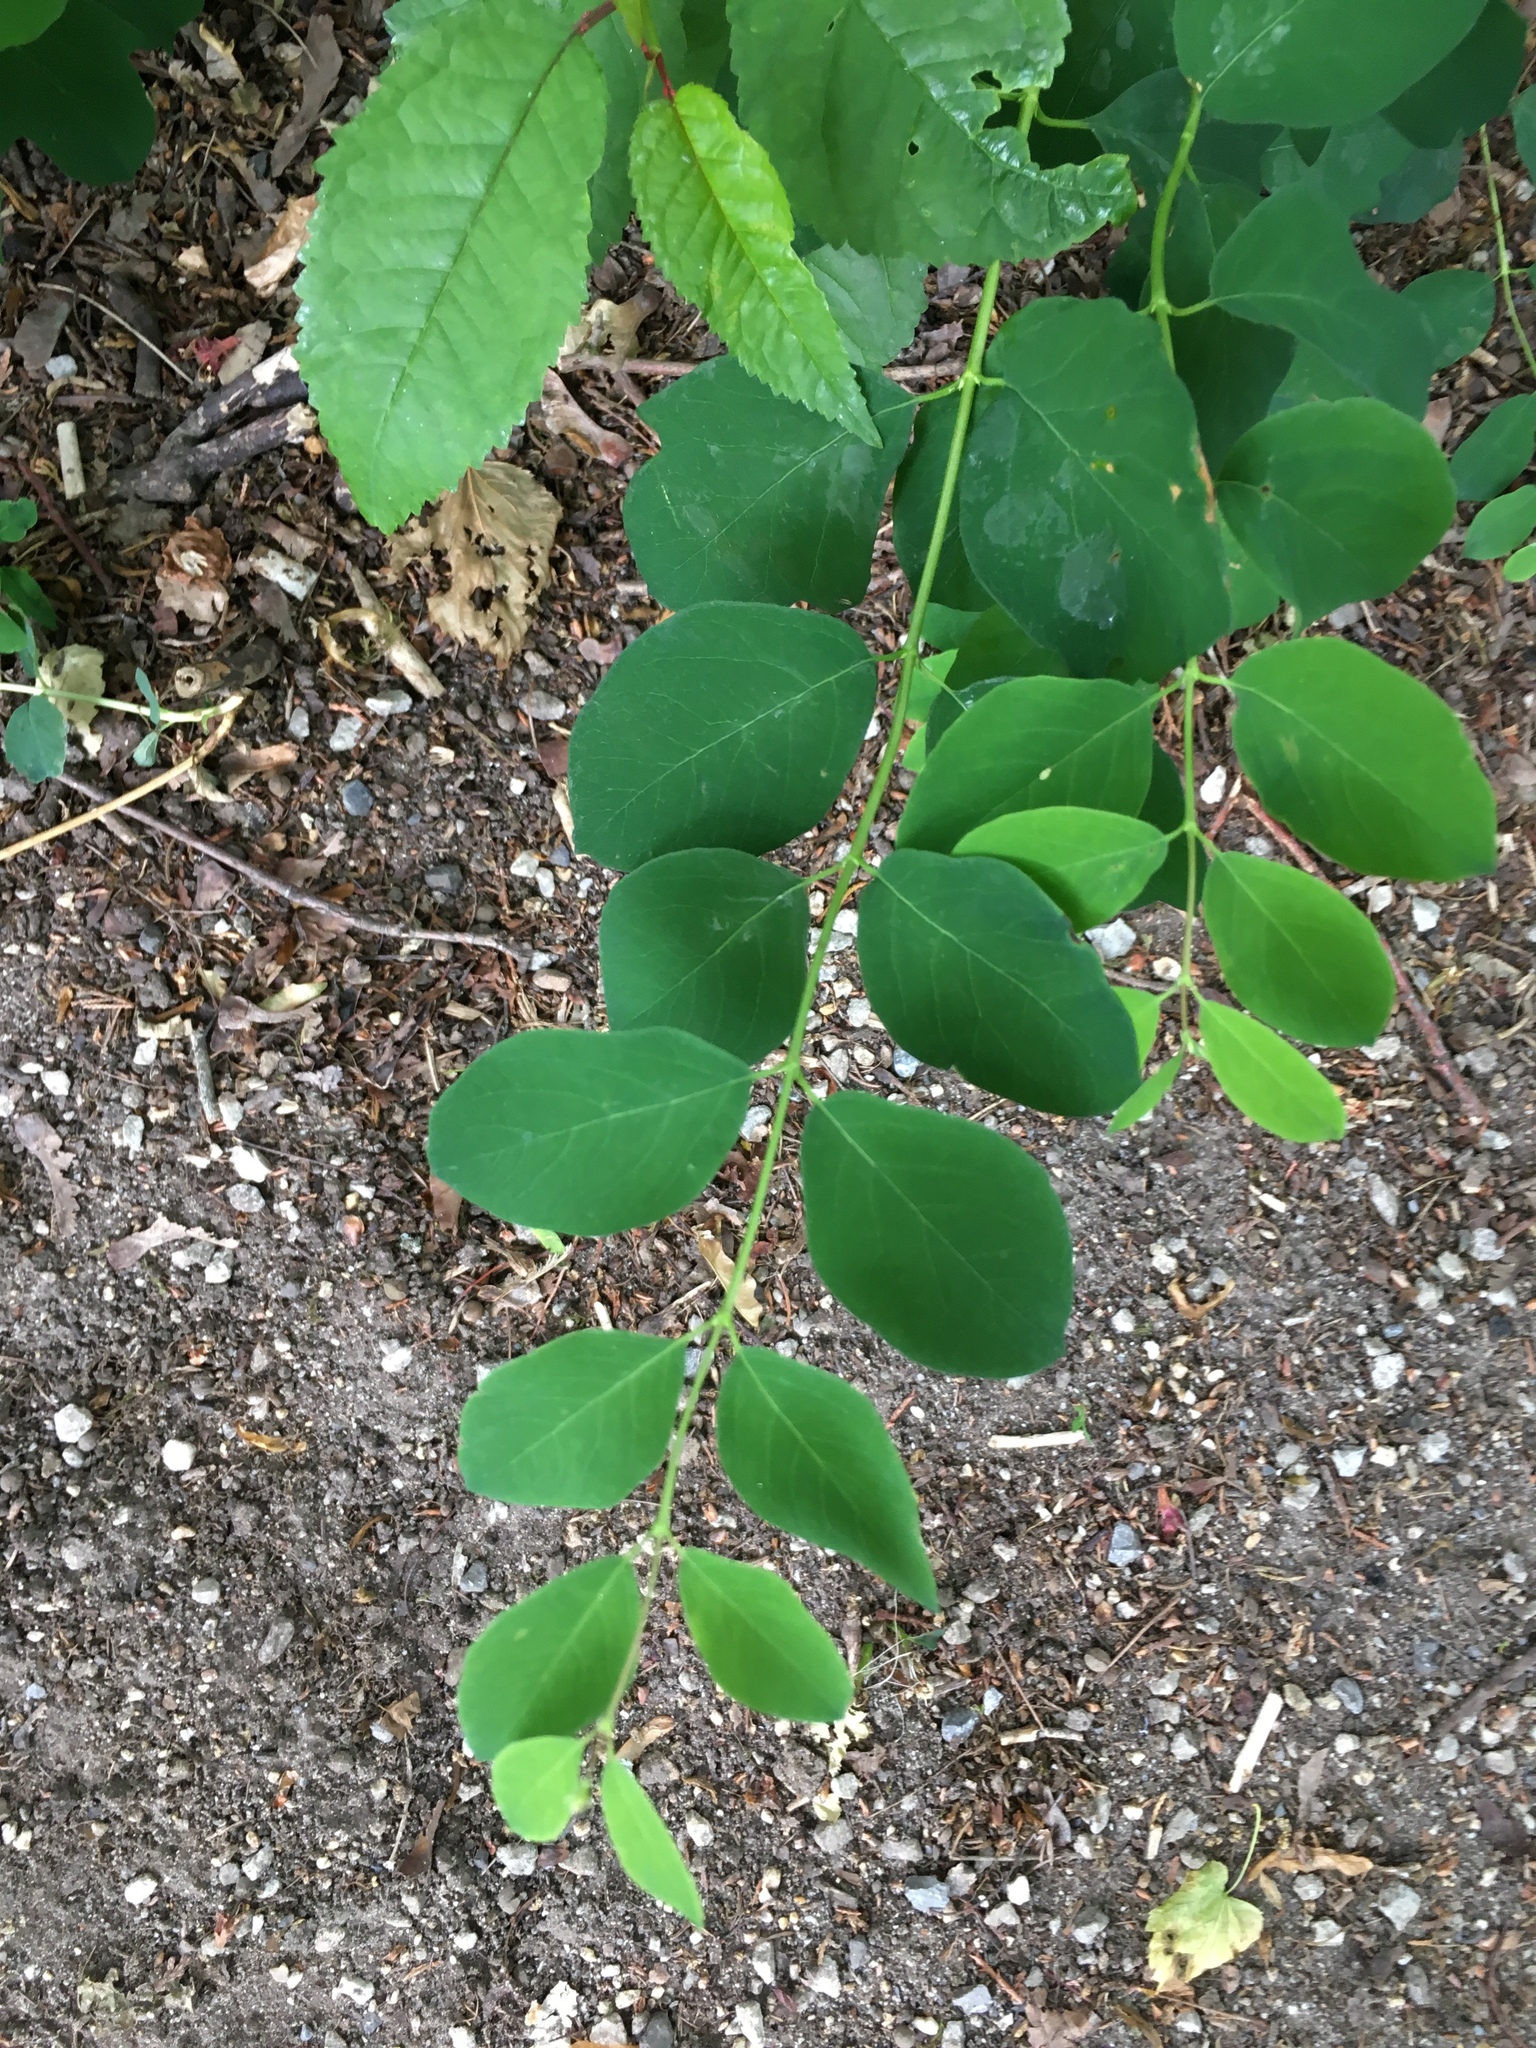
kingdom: Plantae
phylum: Tracheophyta
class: Magnoliopsida
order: Fabales
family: Fabaceae
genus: Robinia
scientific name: Robinia pseudoacacia
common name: Black locust
